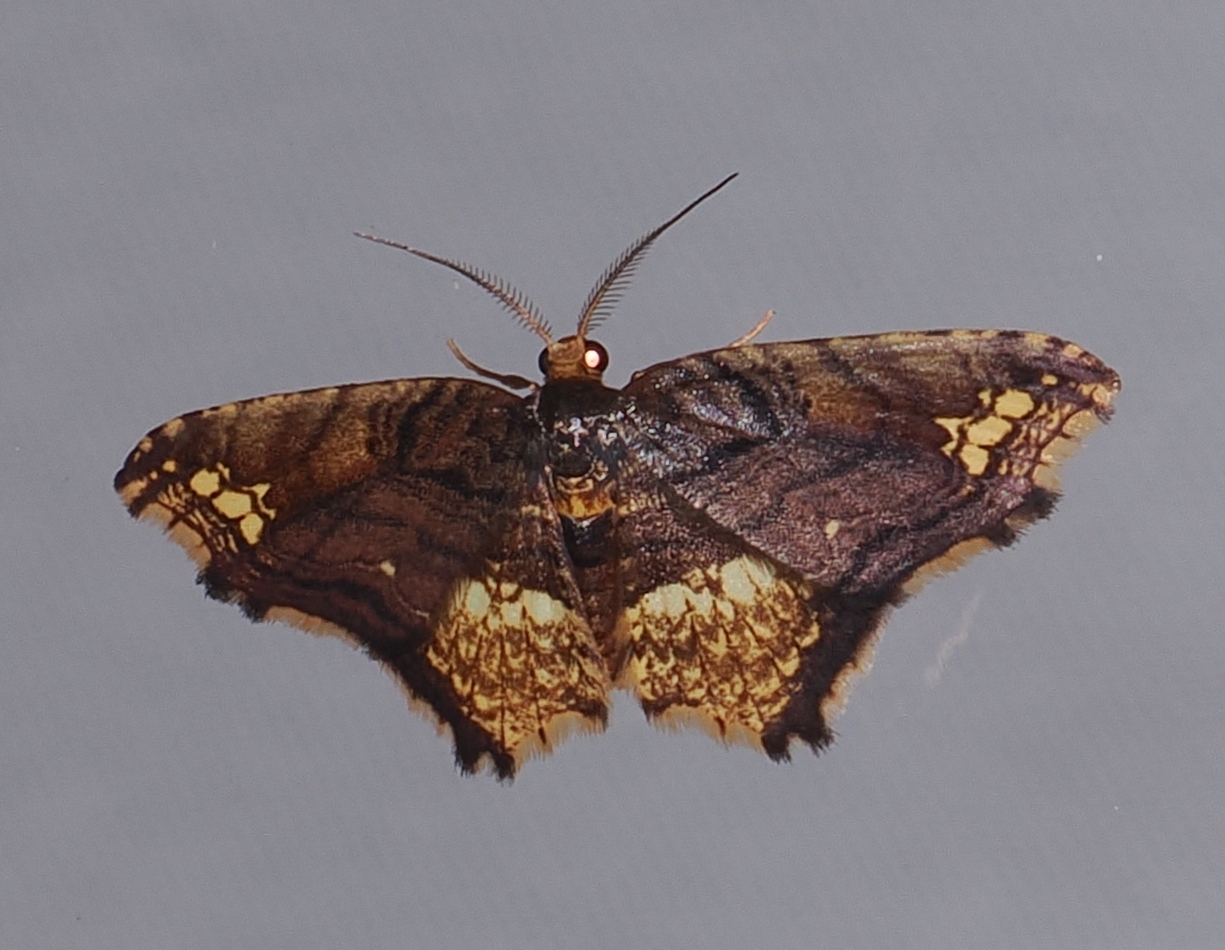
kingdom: Animalia
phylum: Arthropoda
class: Insecta
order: Lepidoptera
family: Geometridae
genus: Eois
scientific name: Eois angulata
